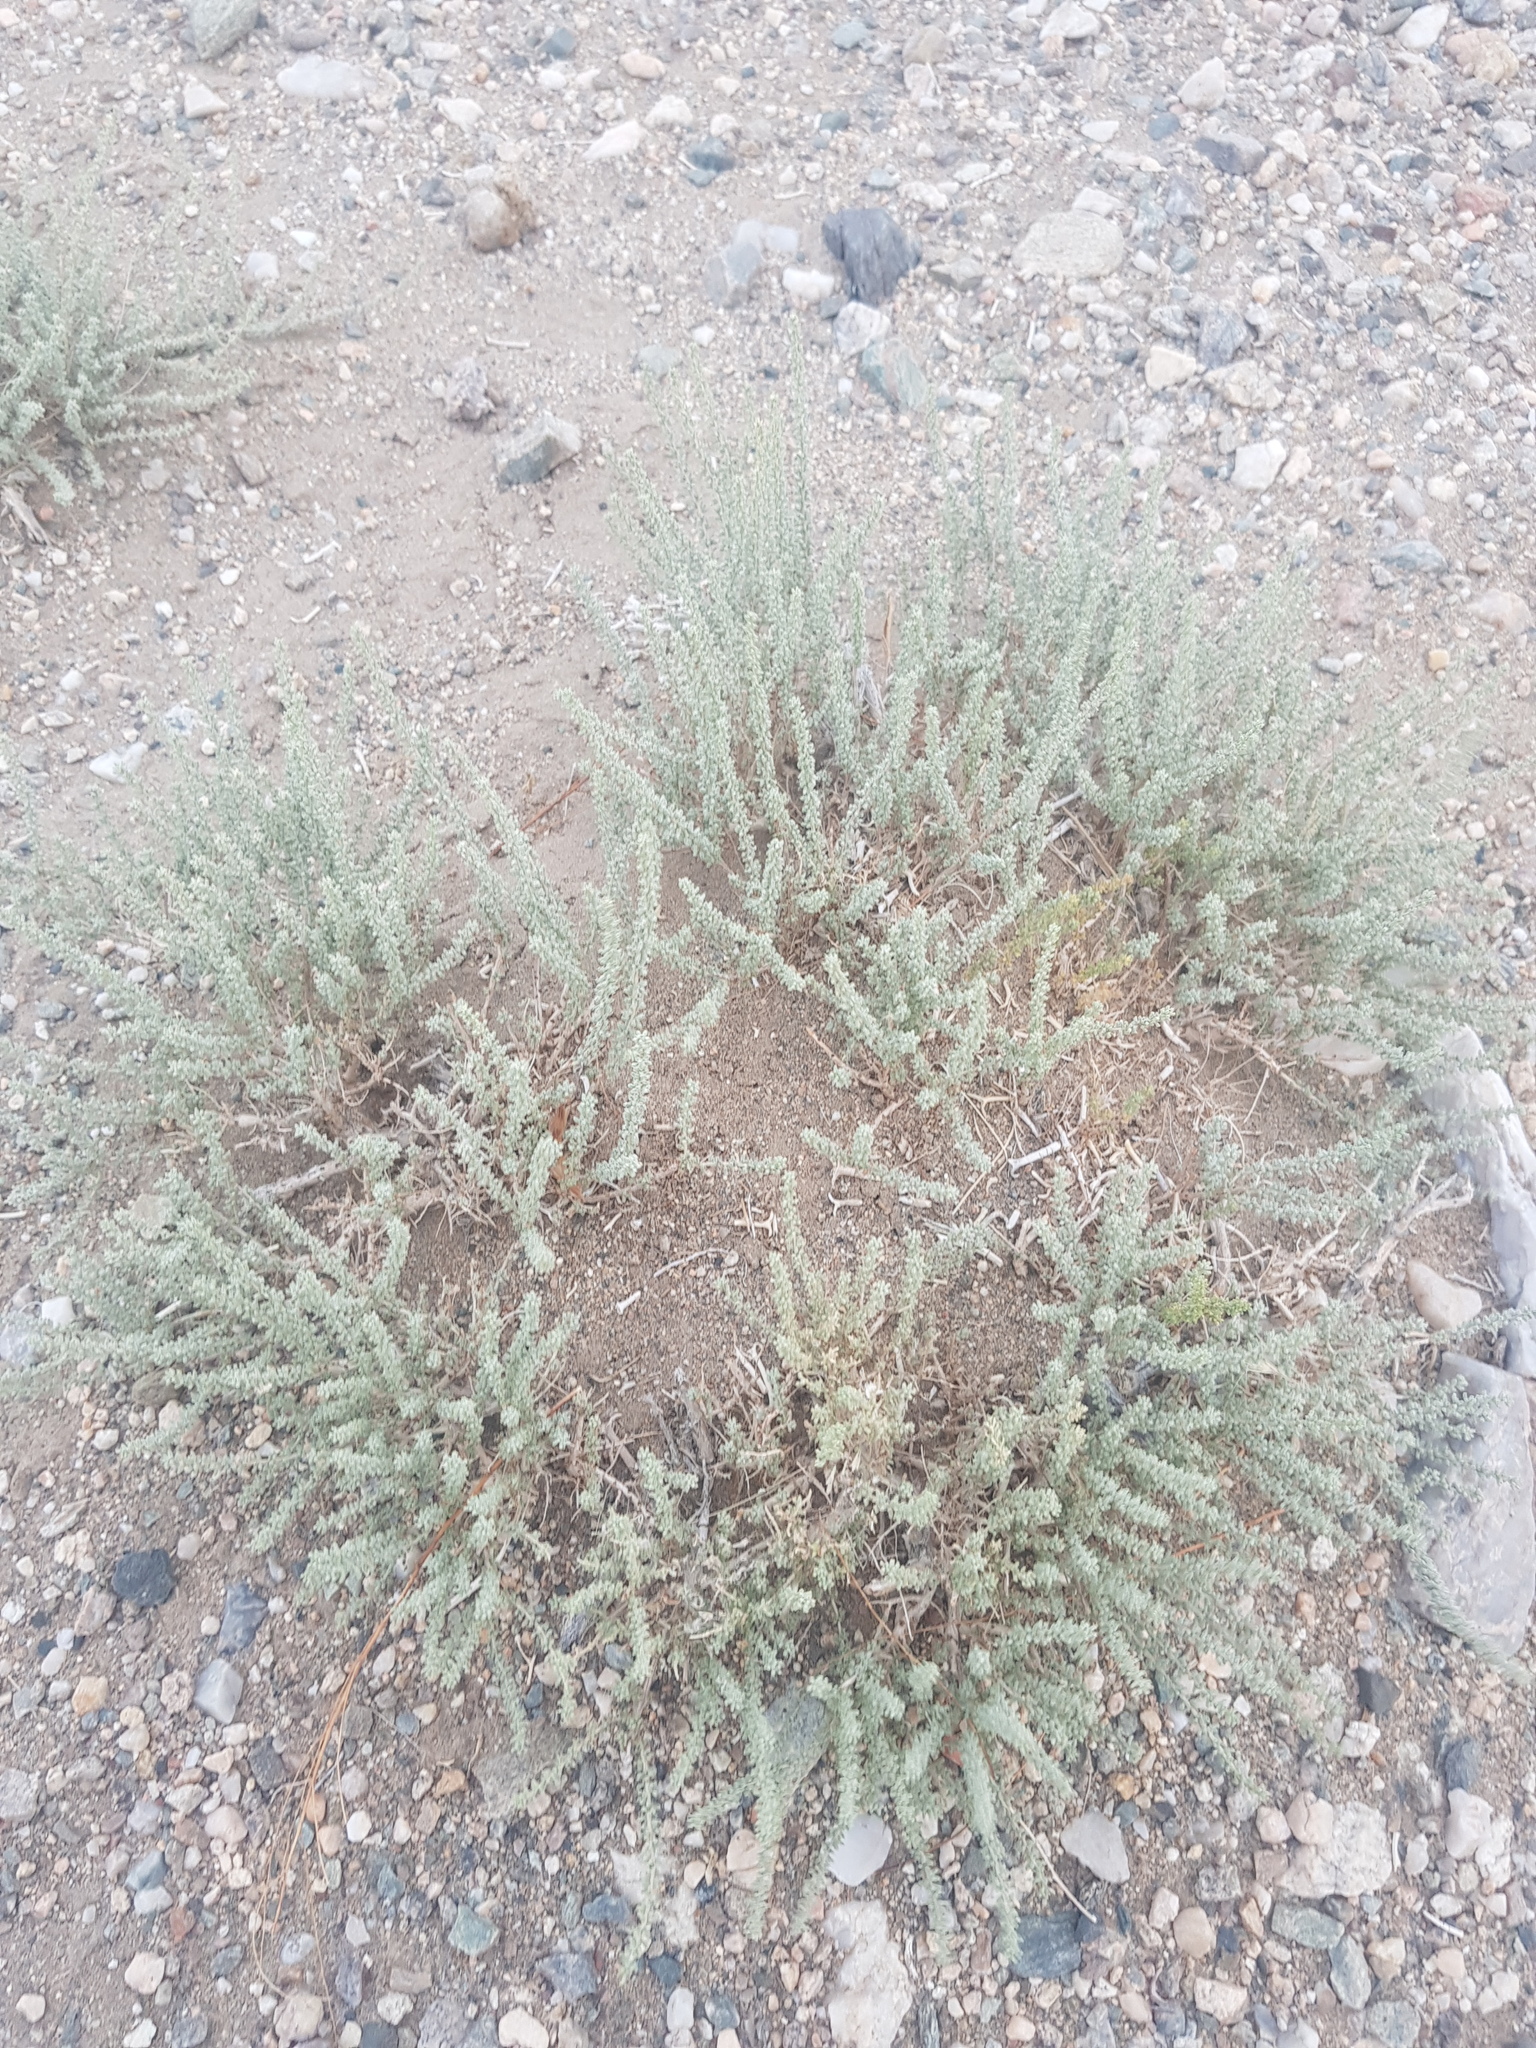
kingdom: Plantae
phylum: Tracheophyta
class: Magnoliopsida
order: Caryophyllales
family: Tamaricaceae
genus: Reaumuria
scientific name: Reaumuria songarica
